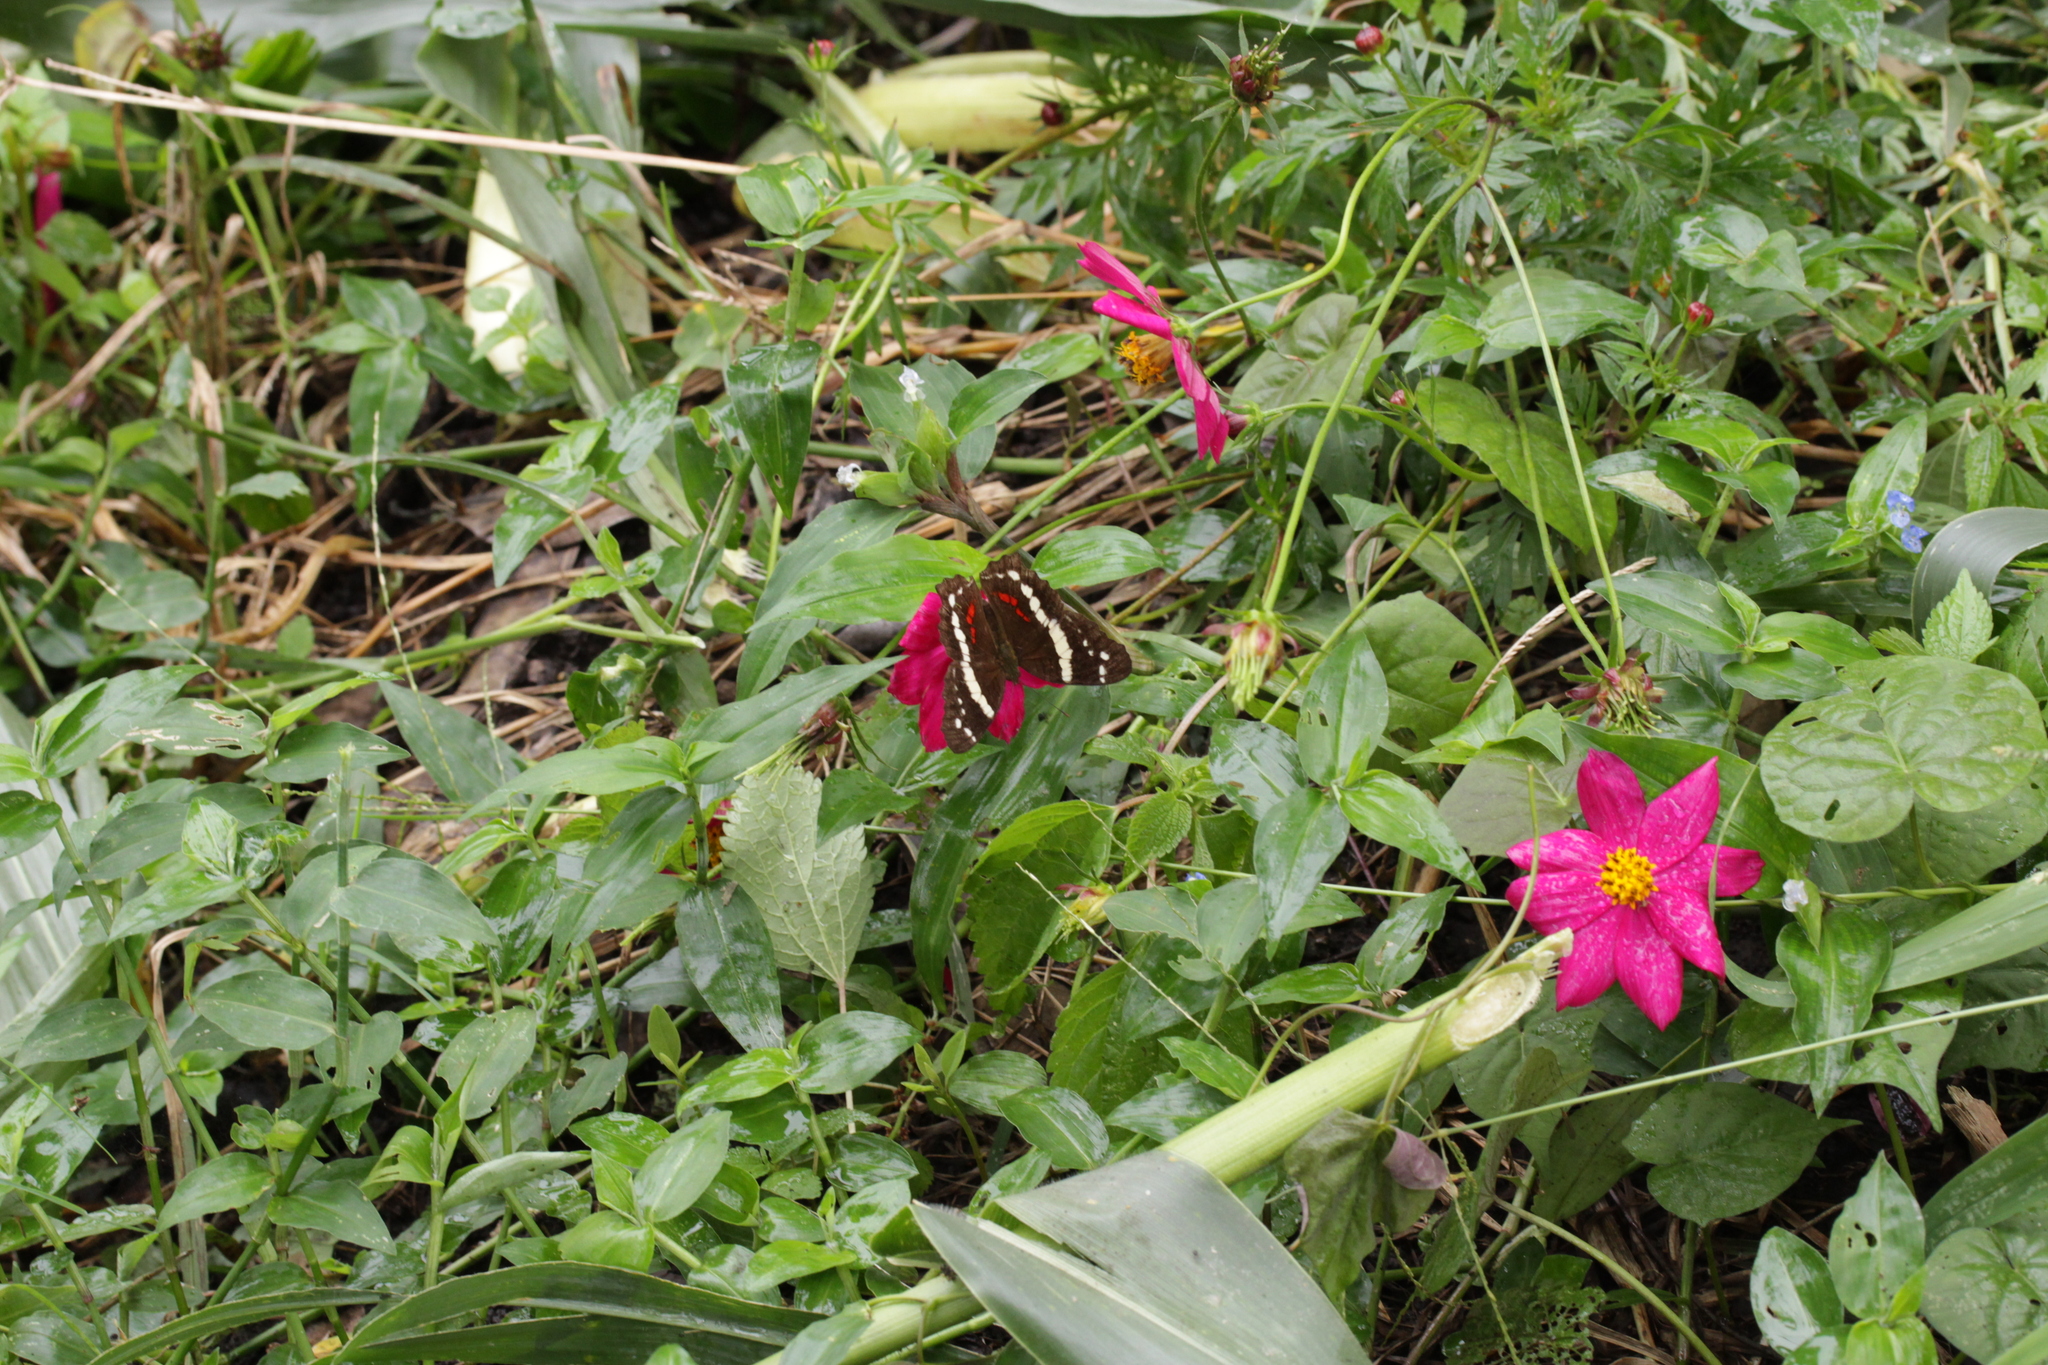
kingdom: Animalia
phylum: Arthropoda
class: Insecta
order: Lepidoptera
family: Nymphalidae
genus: Anartia
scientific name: Anartia fatima
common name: Banded peacock
